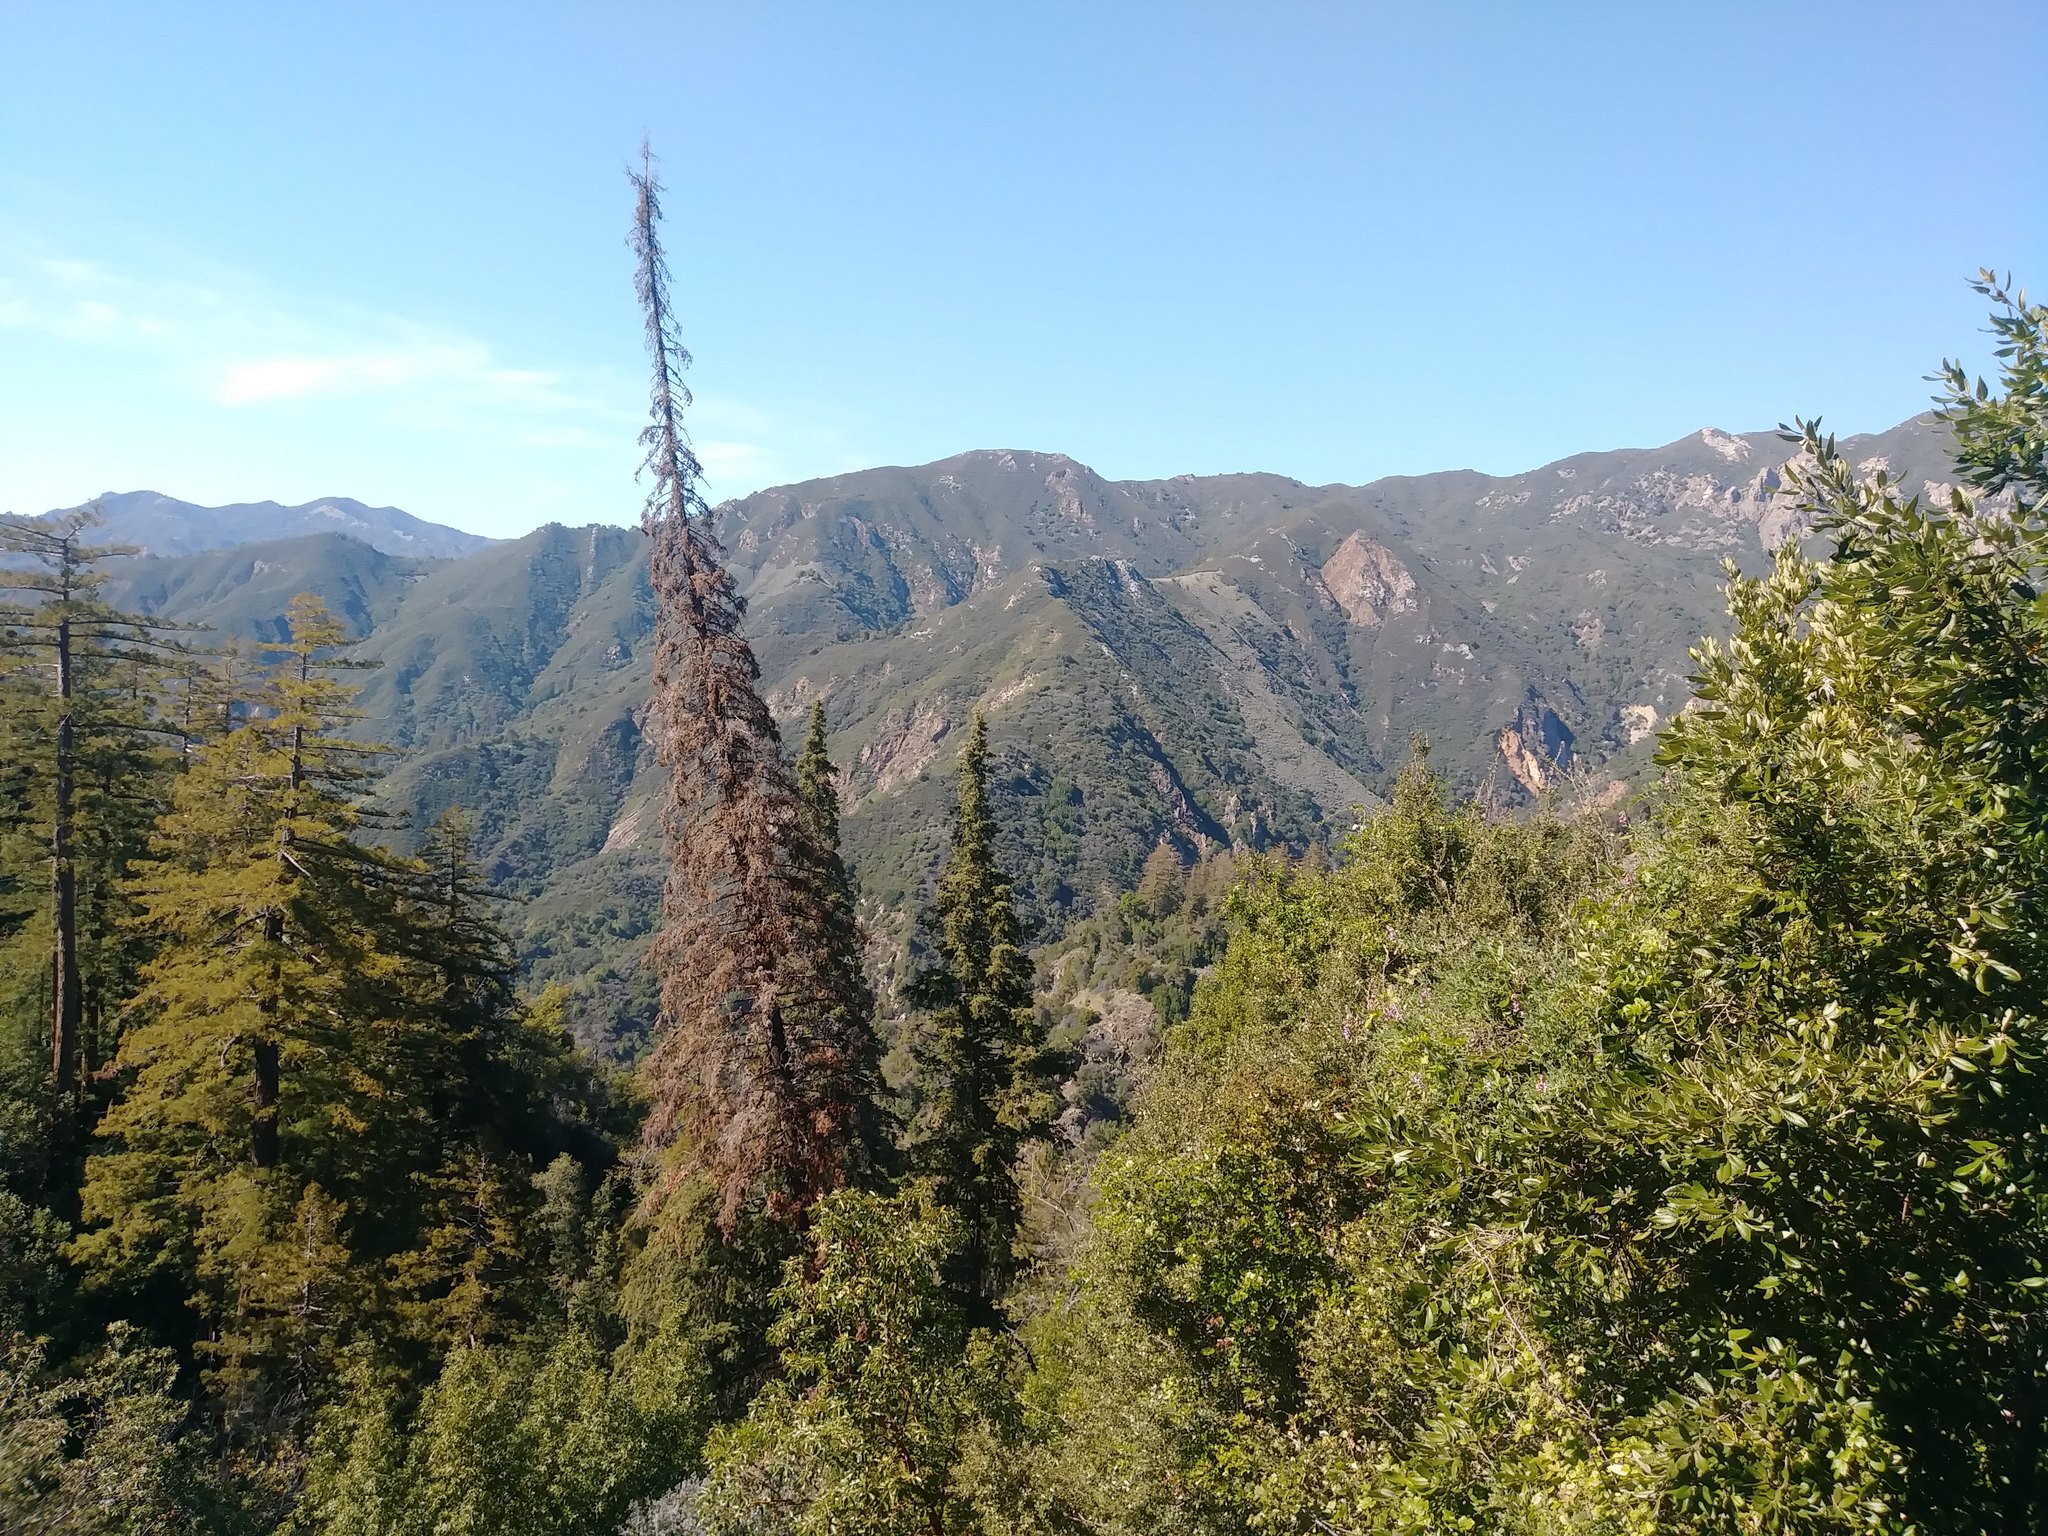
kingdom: Plantae
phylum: Tracheophyta
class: Pinopsida
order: Pinales
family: Pinaceae
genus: Abies
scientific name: Abies bracteata
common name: Bristlecone fir
